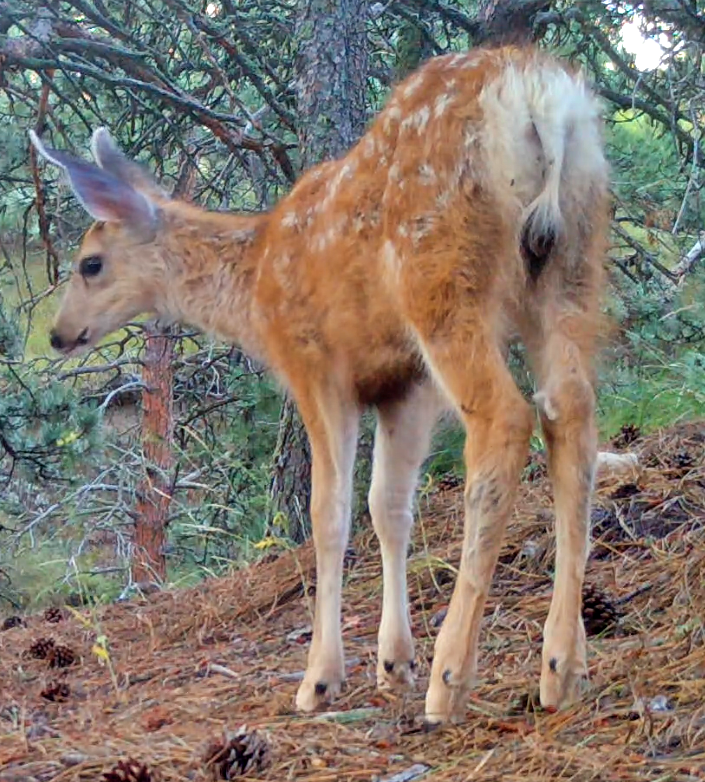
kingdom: Animalia
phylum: Chordata
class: Mammalia
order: Artiodactyla
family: Cervidae
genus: Odocoileus
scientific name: Odocoileus hemionus
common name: Mule deer
